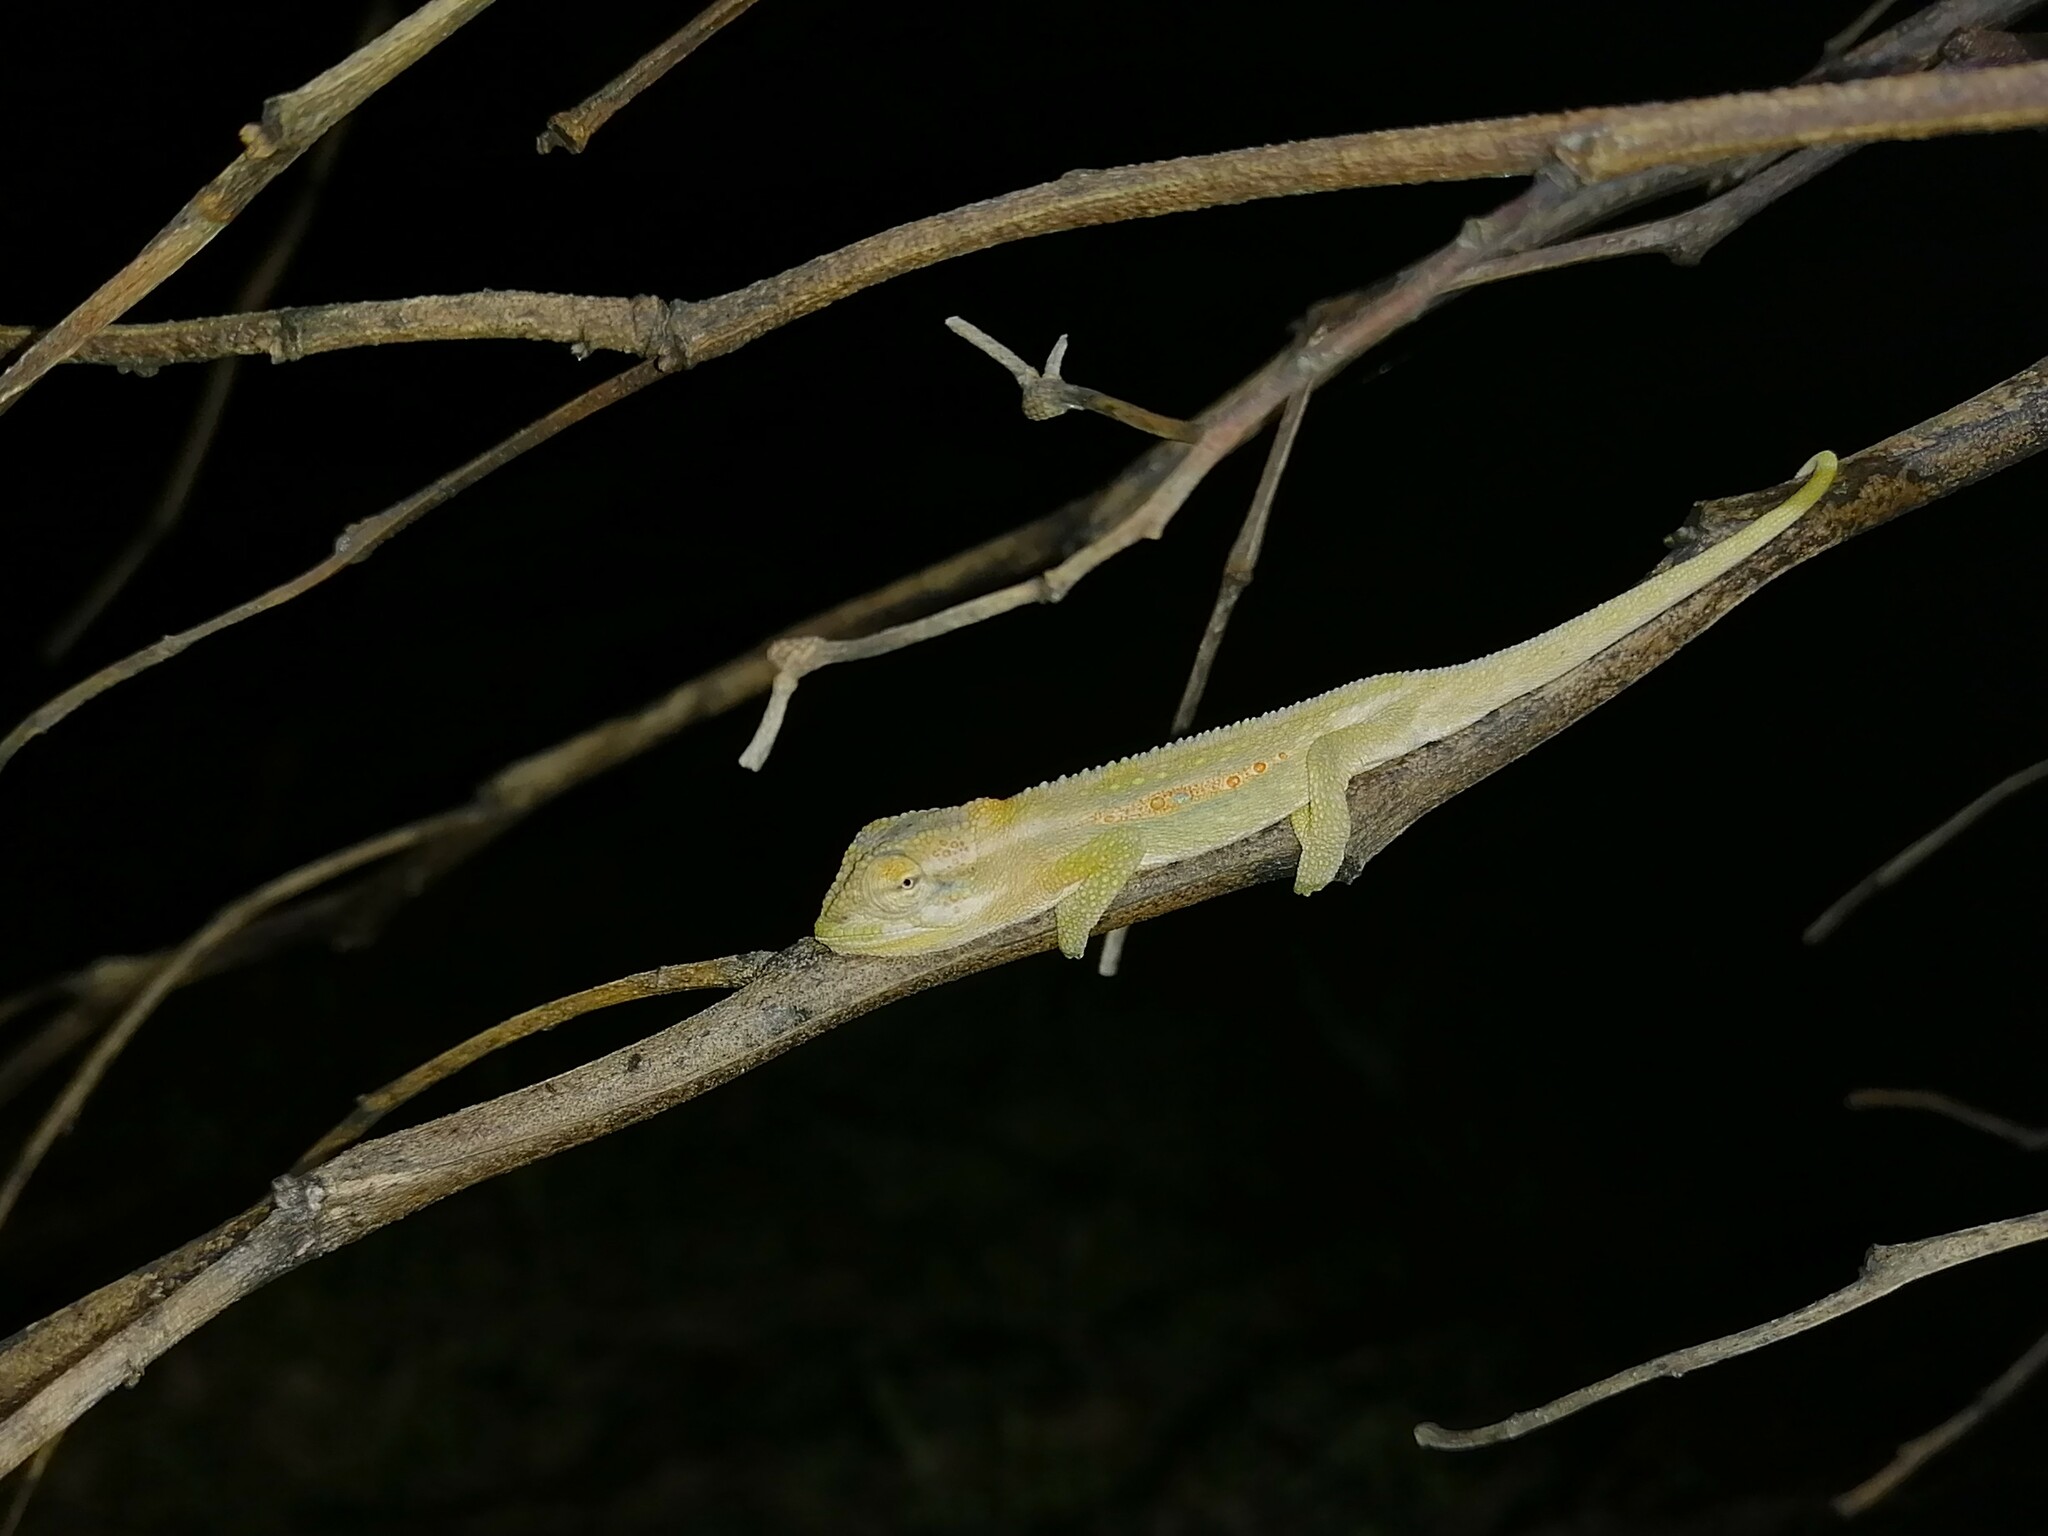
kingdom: Animalia
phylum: Chordata
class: Squamata
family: Chamaeleonidae
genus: Bradypodion
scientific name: Bradypodion pumilum
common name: Cape dwarf chameleon
